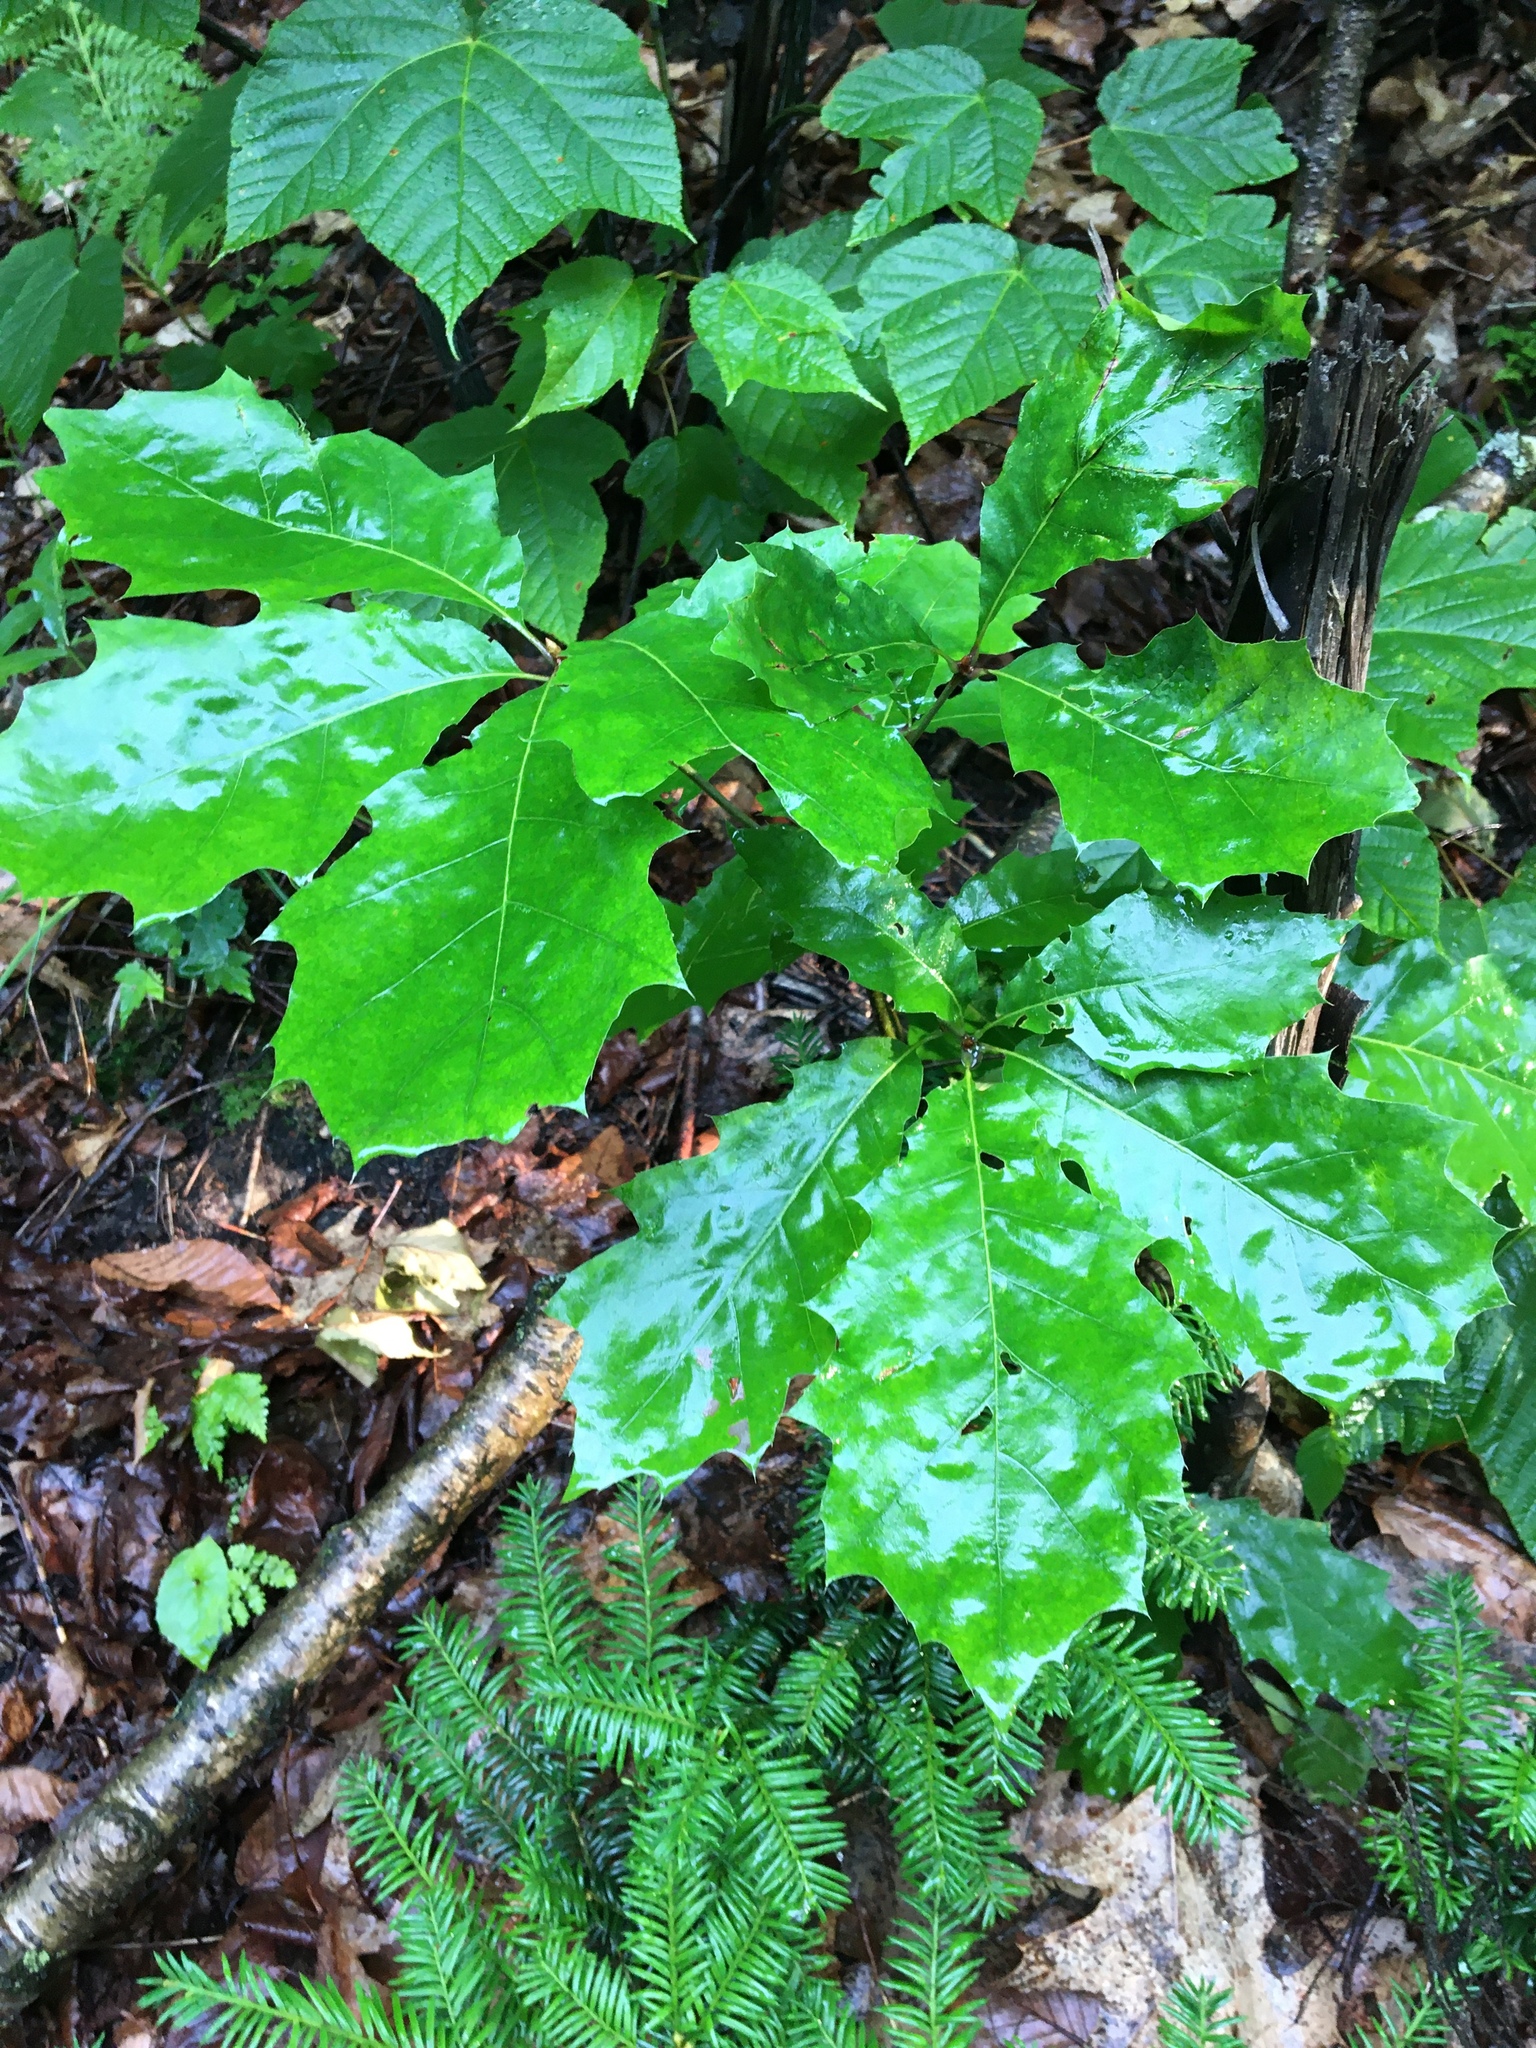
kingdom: Plantae
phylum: Tracheophyta
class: Magnoliopsida
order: Fagales
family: Fagaceae
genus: Quercus
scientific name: Quercus rubra
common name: Red oak
